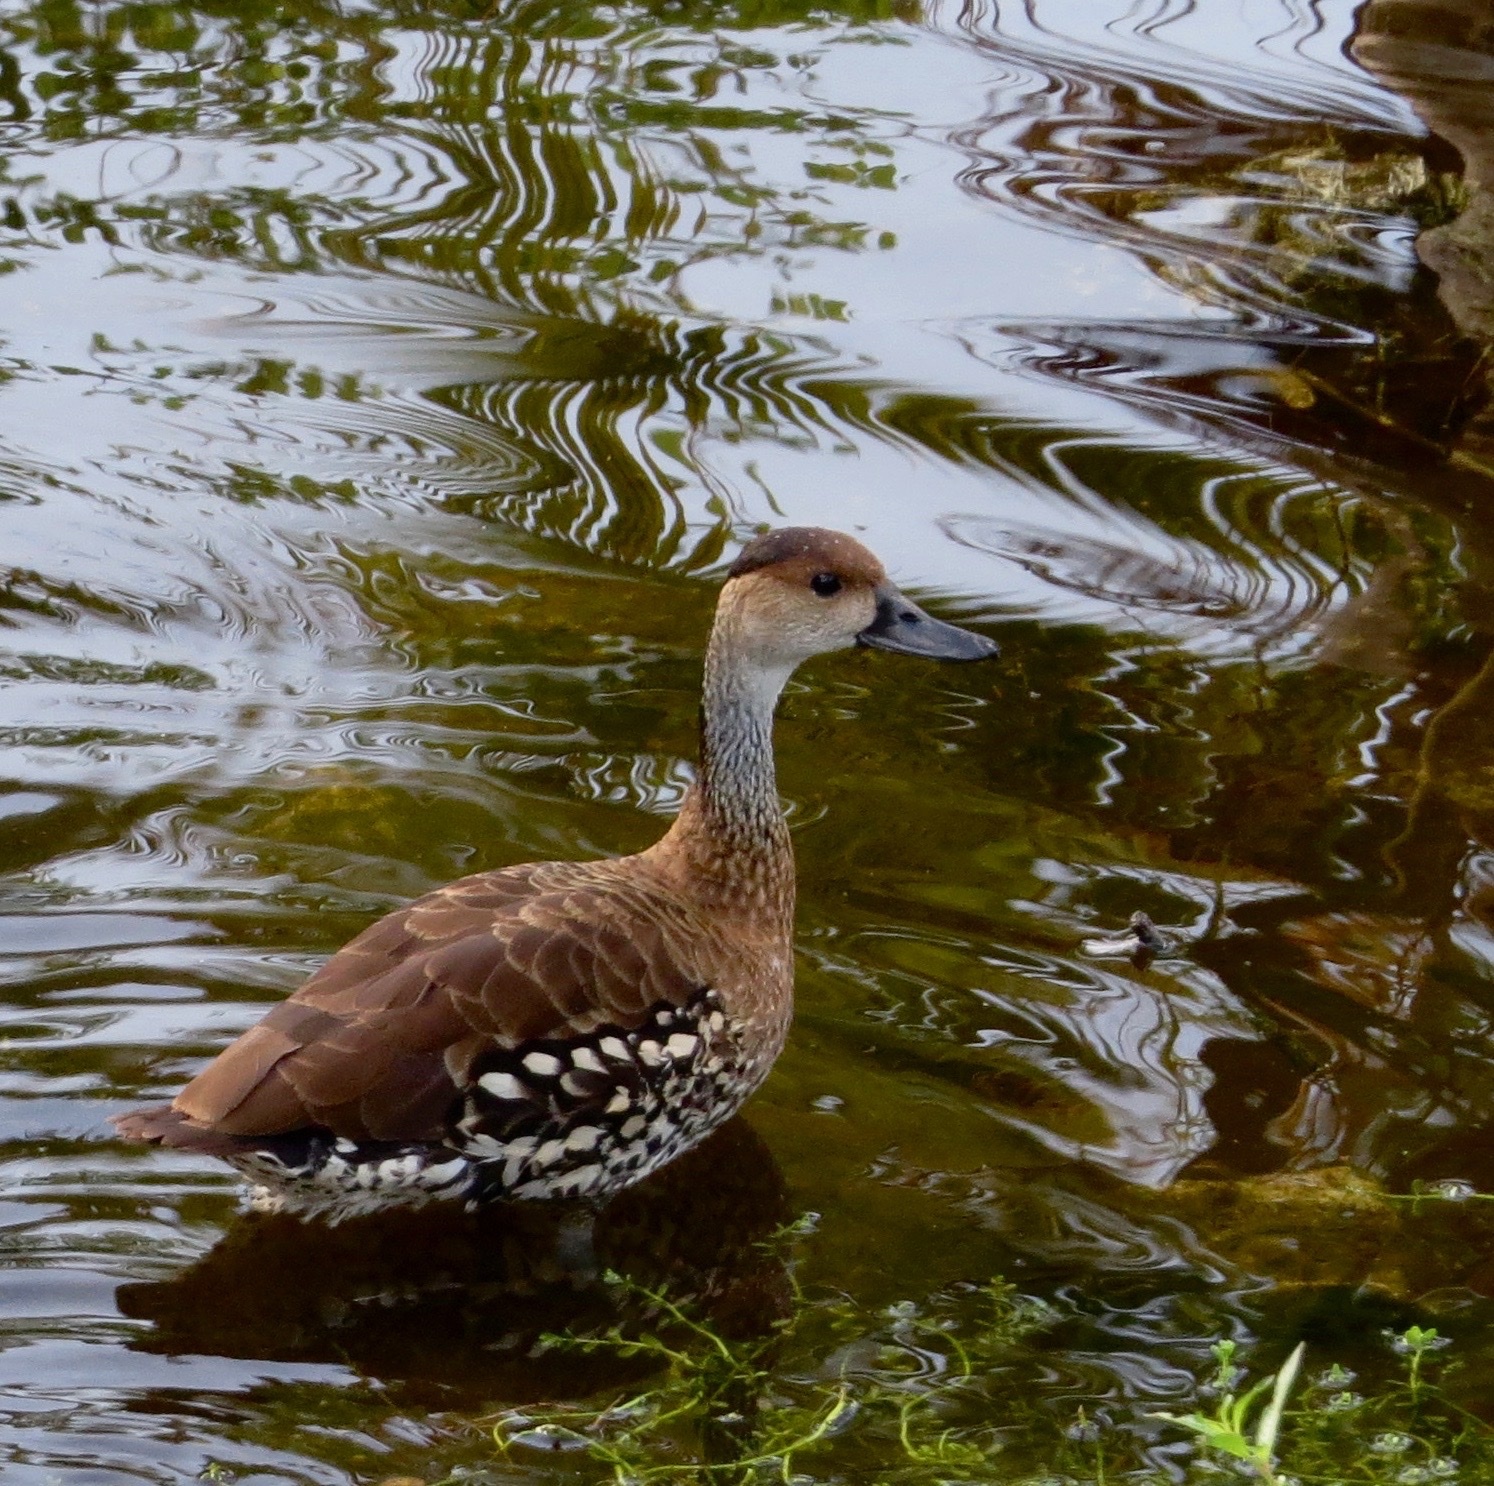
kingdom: Animalia
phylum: Chordata
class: Aves
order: Anseriformes
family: Anatidae
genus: Dendrocygna
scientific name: Dendrocygna arborea
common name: West indian whistling duck
